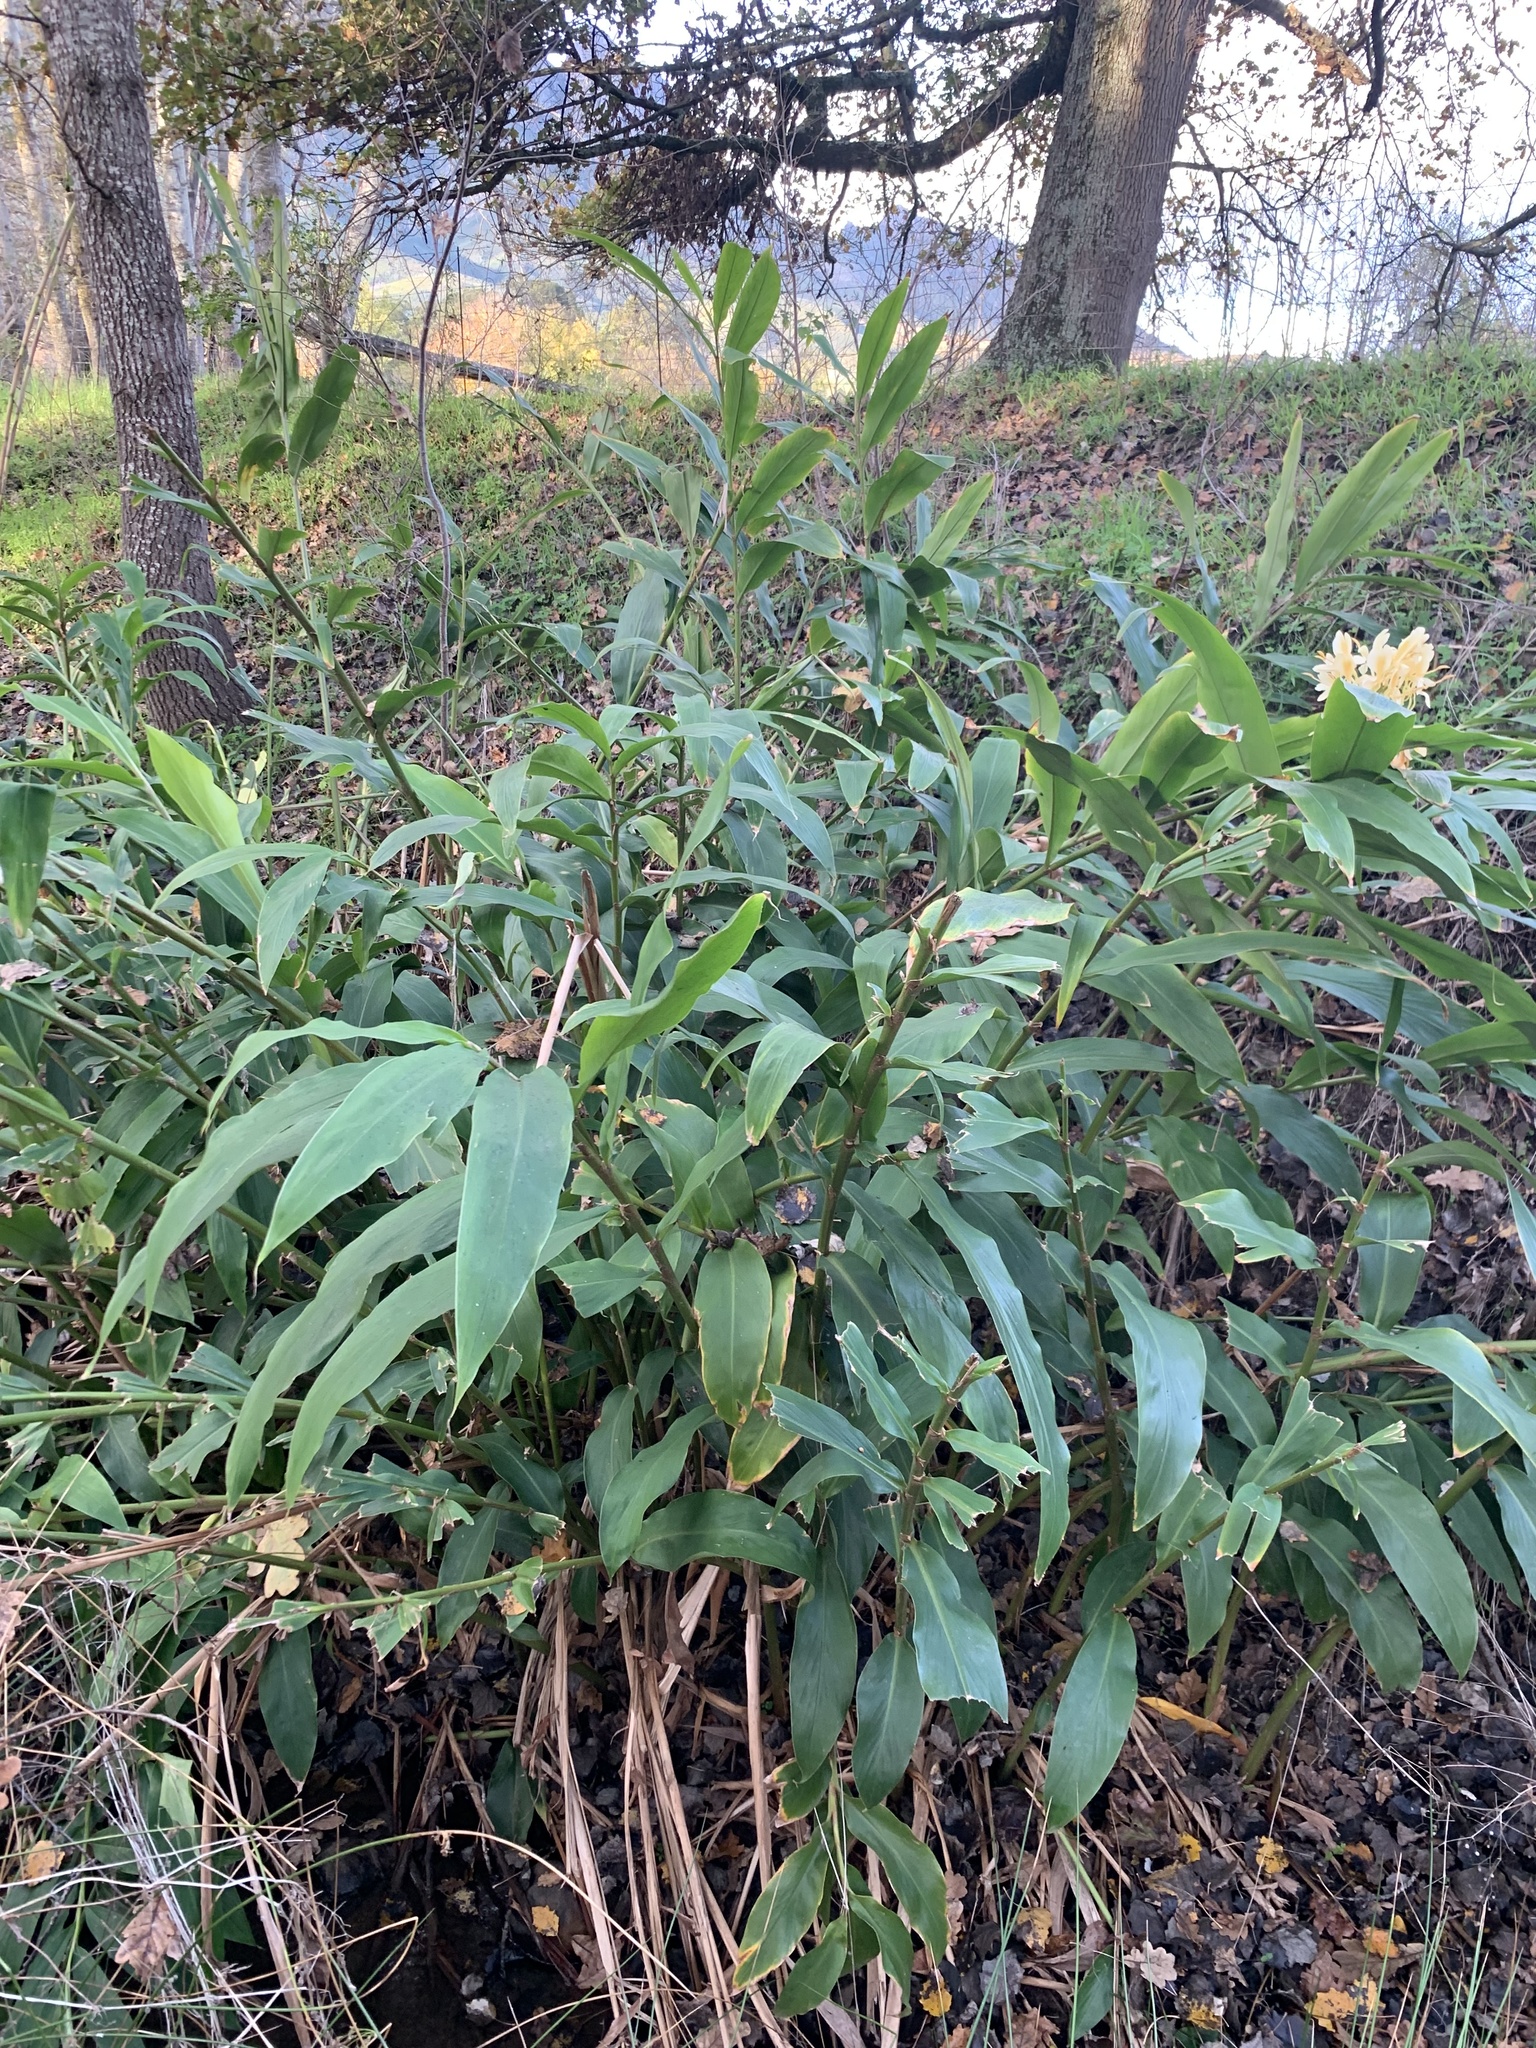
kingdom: Plantae
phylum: Tracheophyta
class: Liliopsida
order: Zingiberales
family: Zingiberaceae
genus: Hedychium
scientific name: Hedychium flavescens
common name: Yellow ginger
